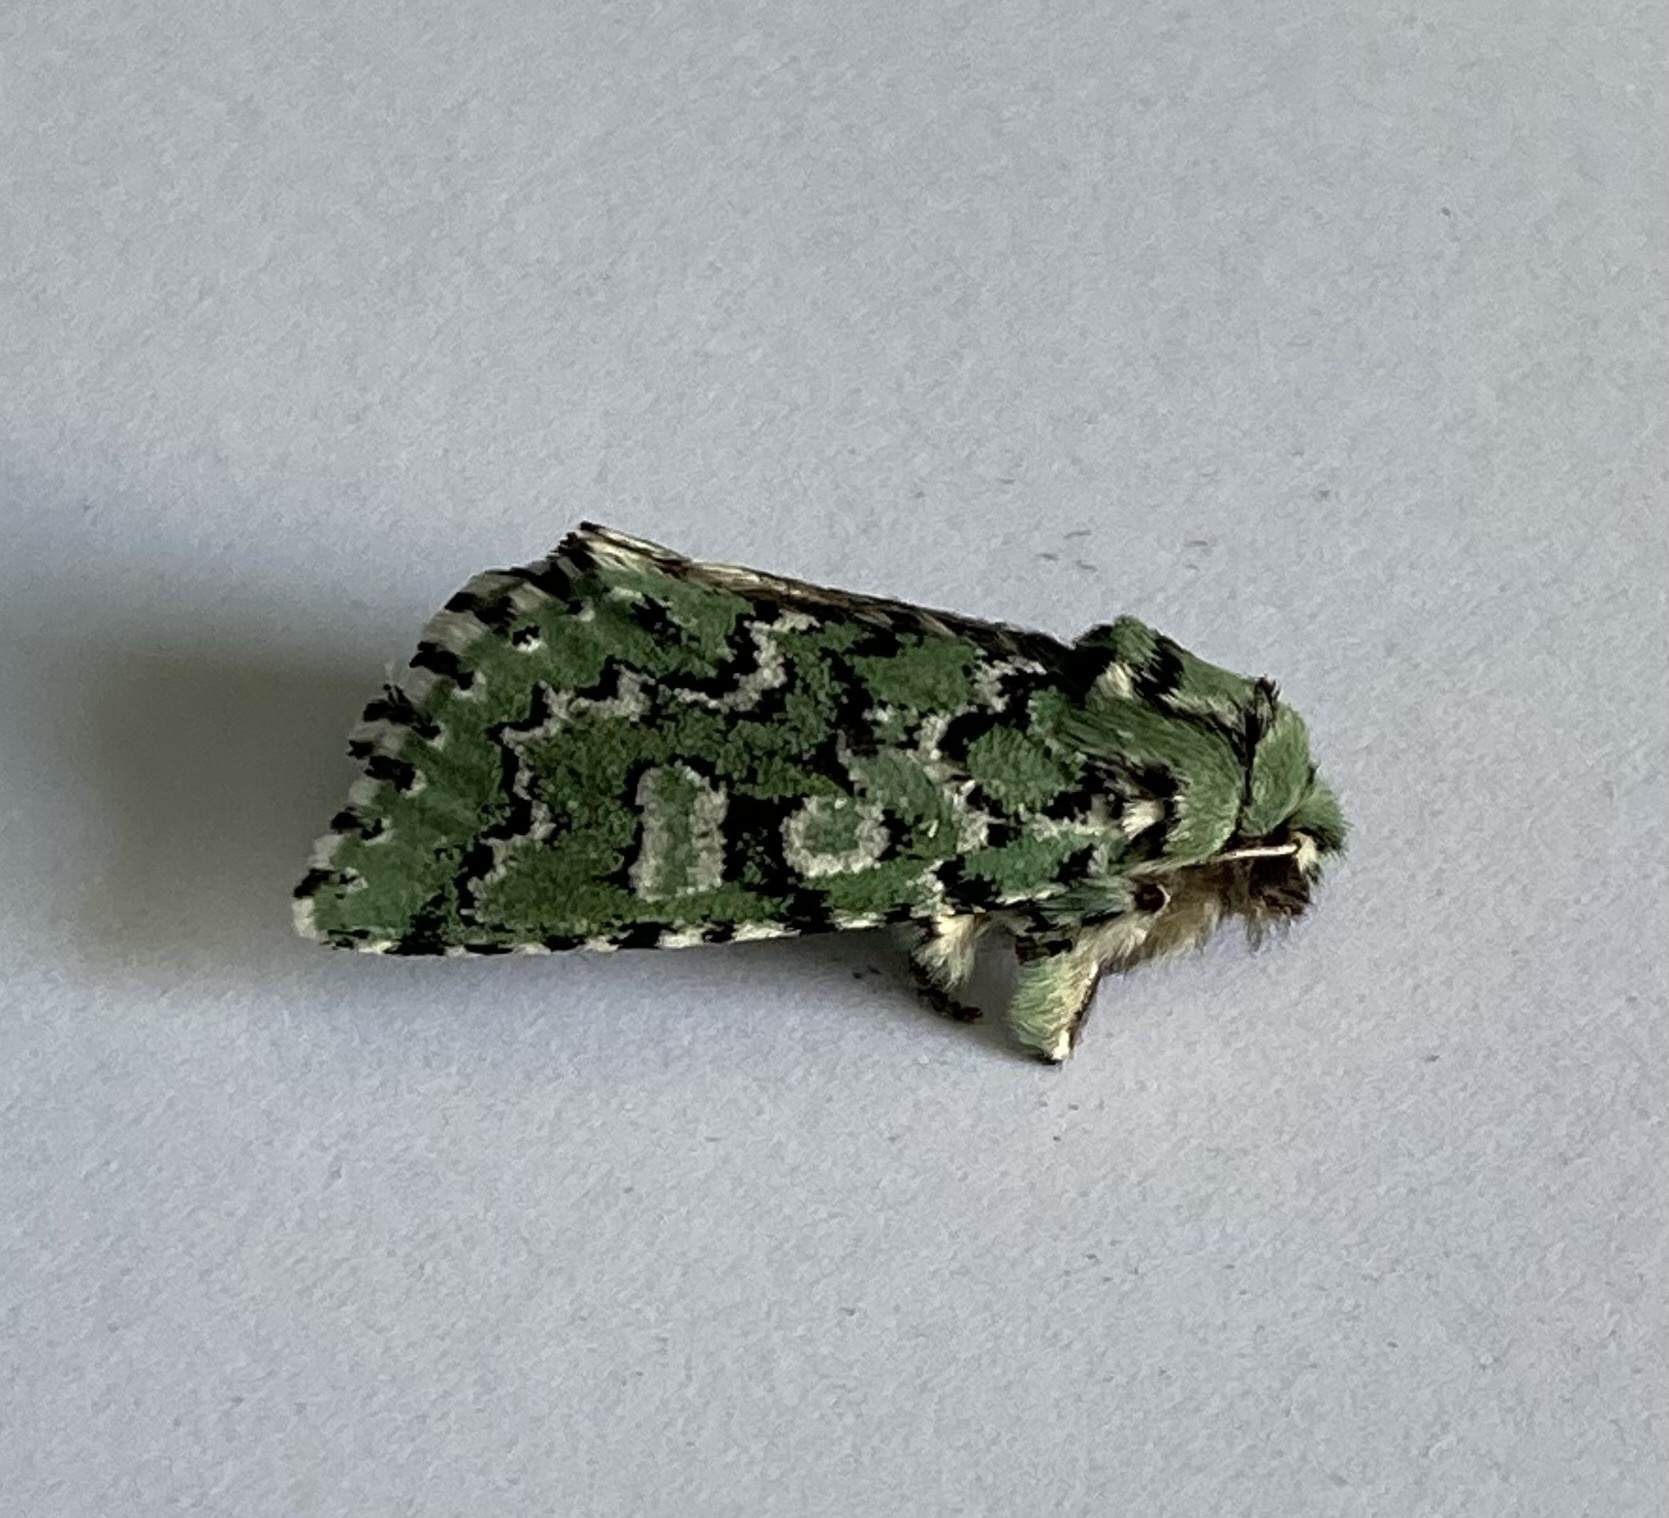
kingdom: Animalia
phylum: Arthropoda
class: Insecta
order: Lepidoptera
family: Noctuidae
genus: Feralia
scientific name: Feralia jocosa
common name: Joker
